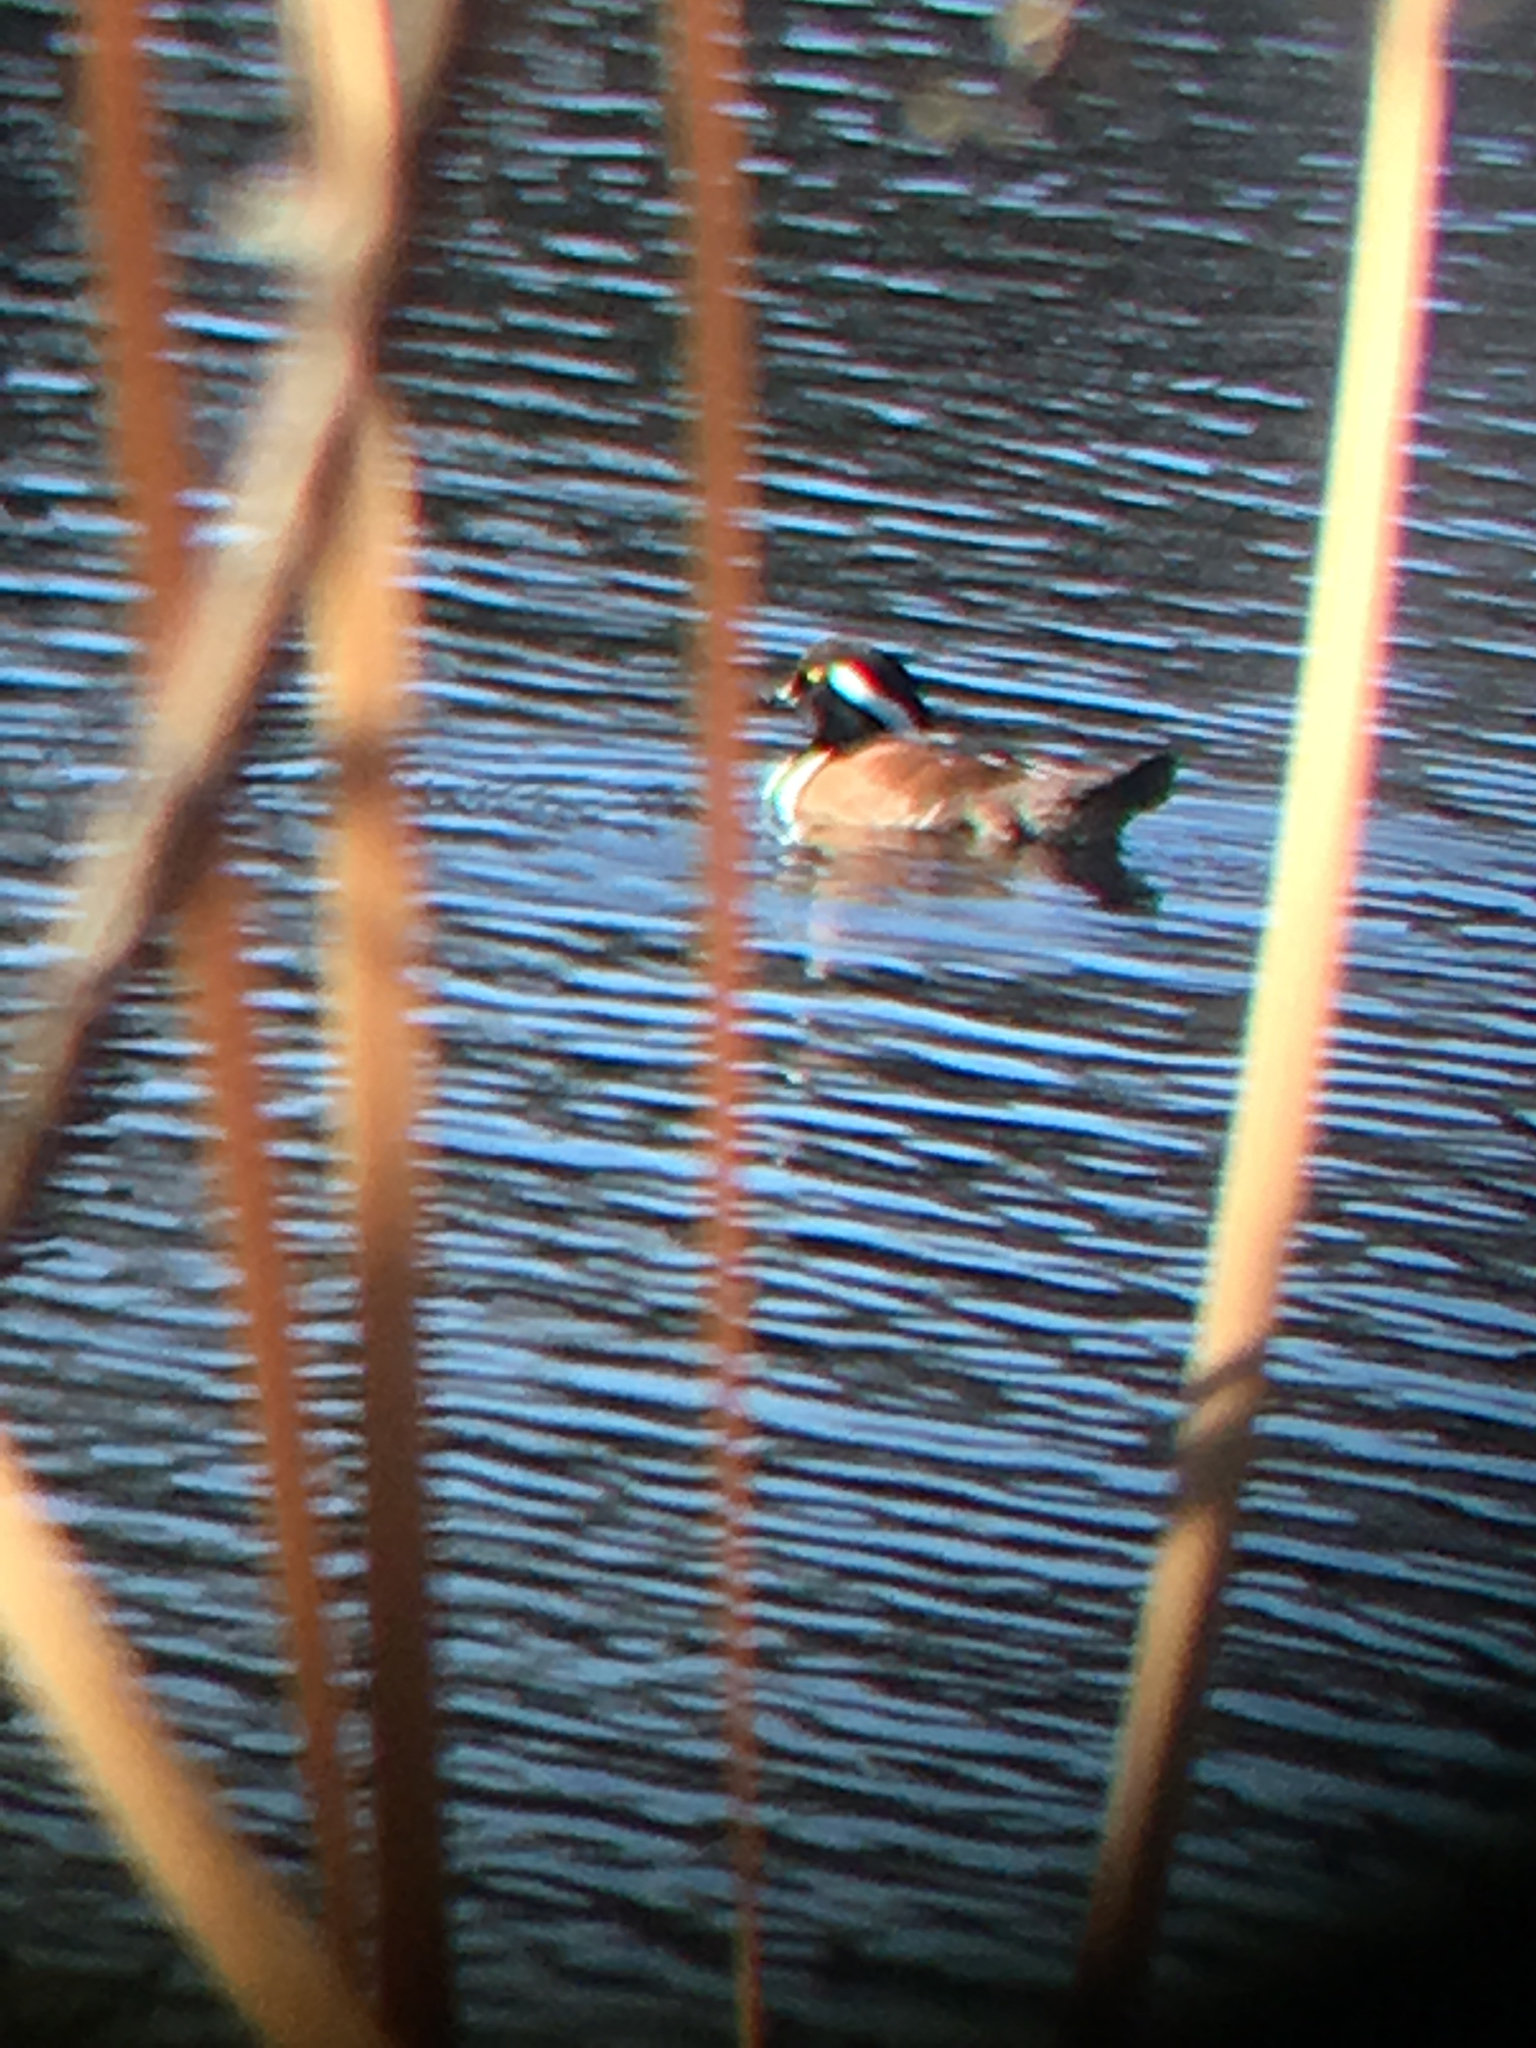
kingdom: Animalia
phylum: Chordata
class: Aves
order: Anseriformes
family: Anatidae
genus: Lophodytes
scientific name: Lophodytes cucullatus
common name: Hooded merganser
